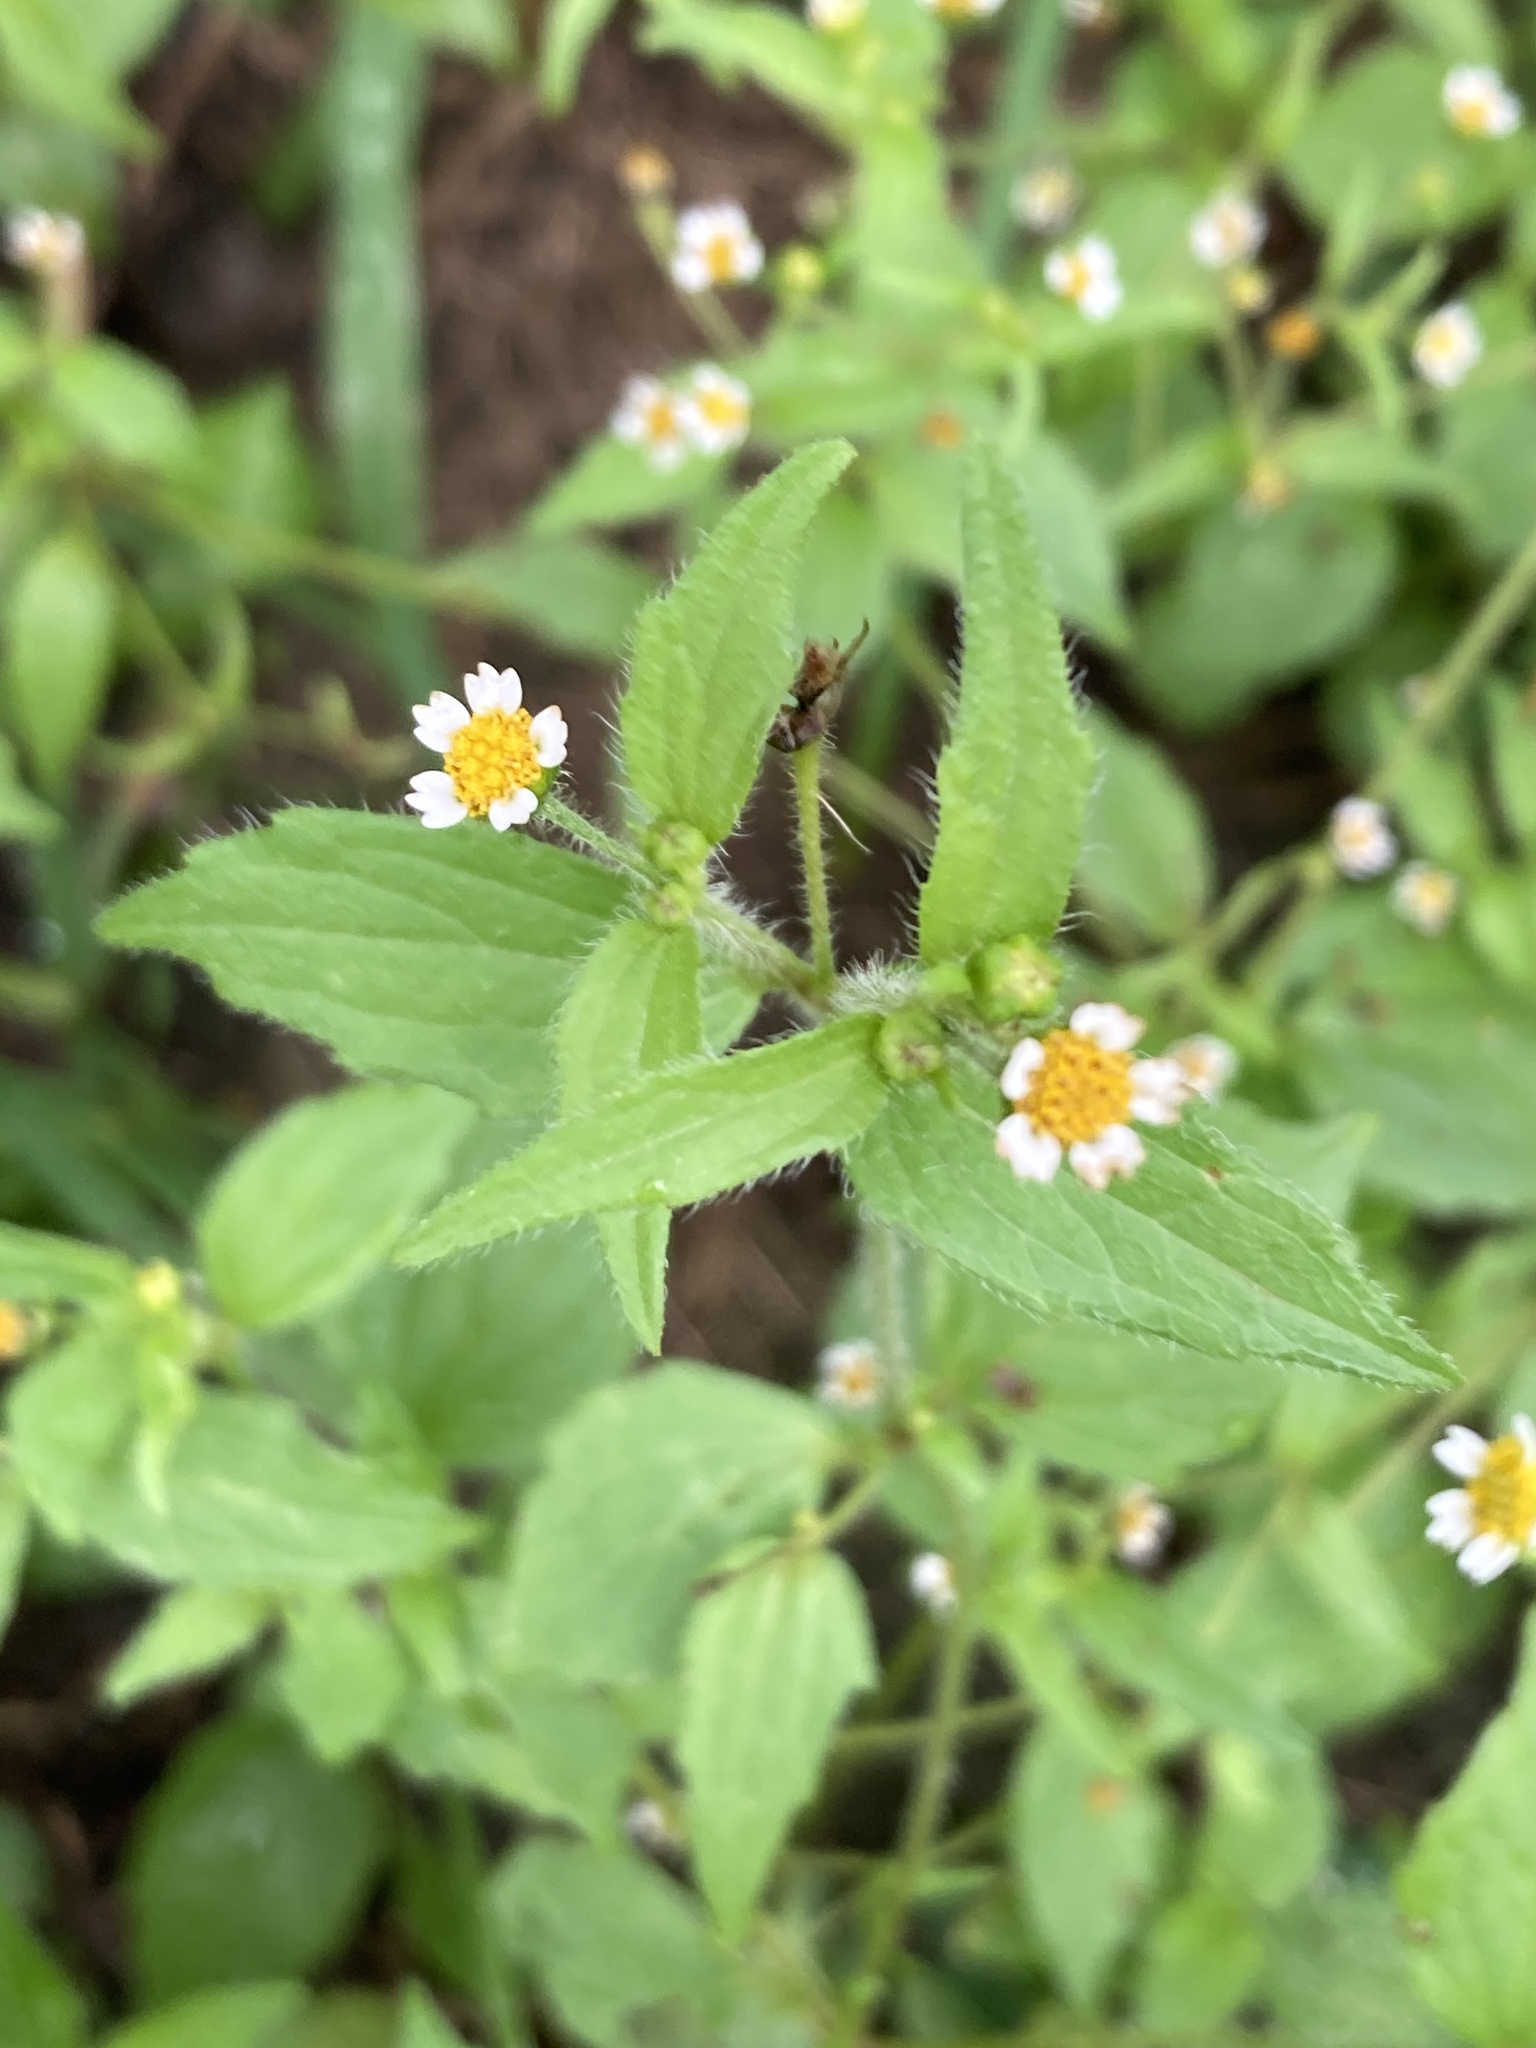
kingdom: Plantae
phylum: Tracheophyta
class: Magnoliopsida
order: Asterales
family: Asteraceae
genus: Galinsoga
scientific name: Galinsoga quadriradiata
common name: Shaggy soldier
